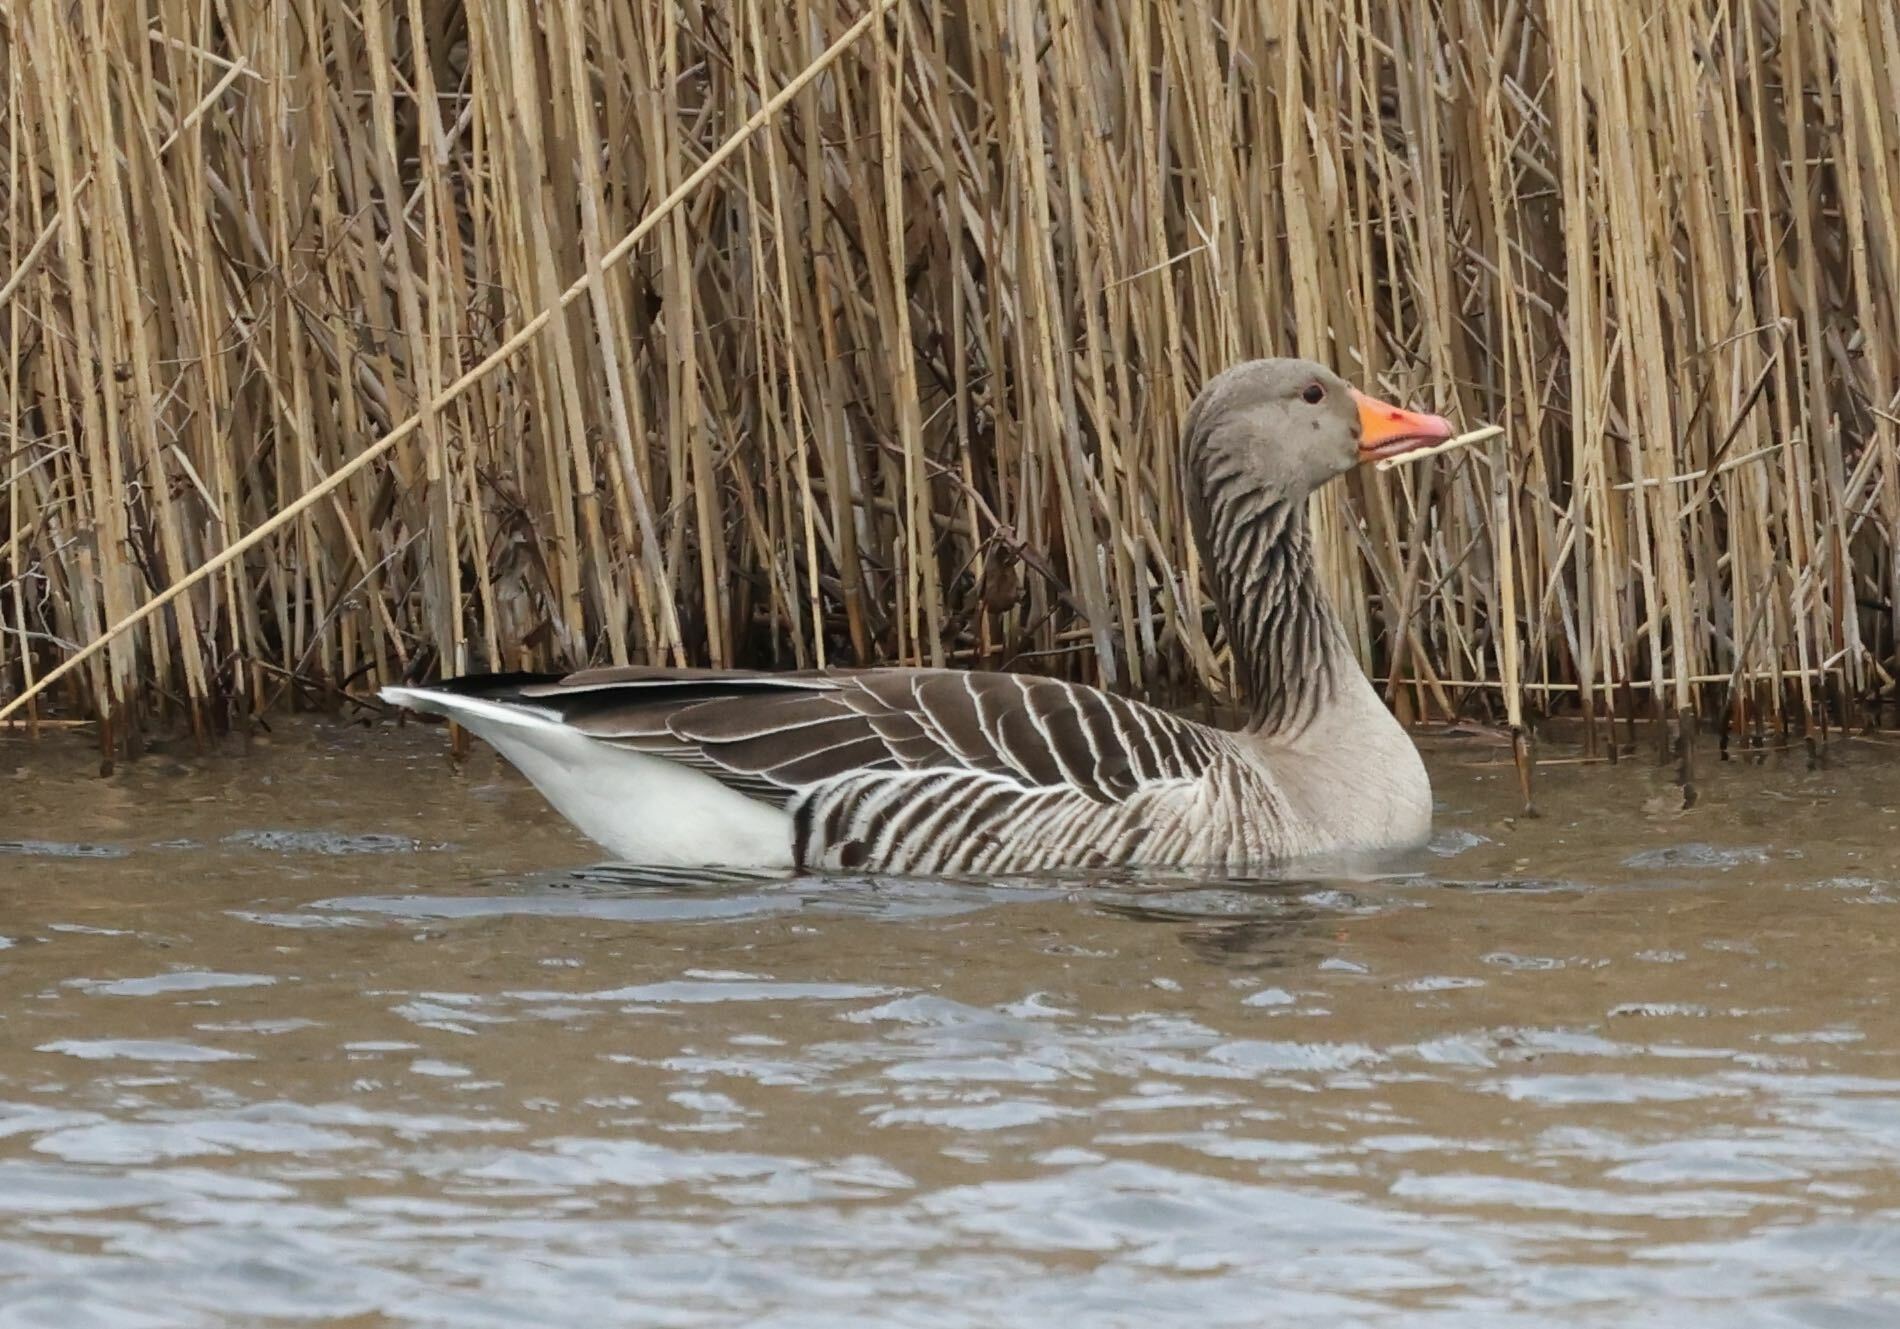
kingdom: Animalia
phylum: Chordata
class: Aves
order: Anseriformes
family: Anatidae
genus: Anser
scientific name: Anser anser
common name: Greylag goose
